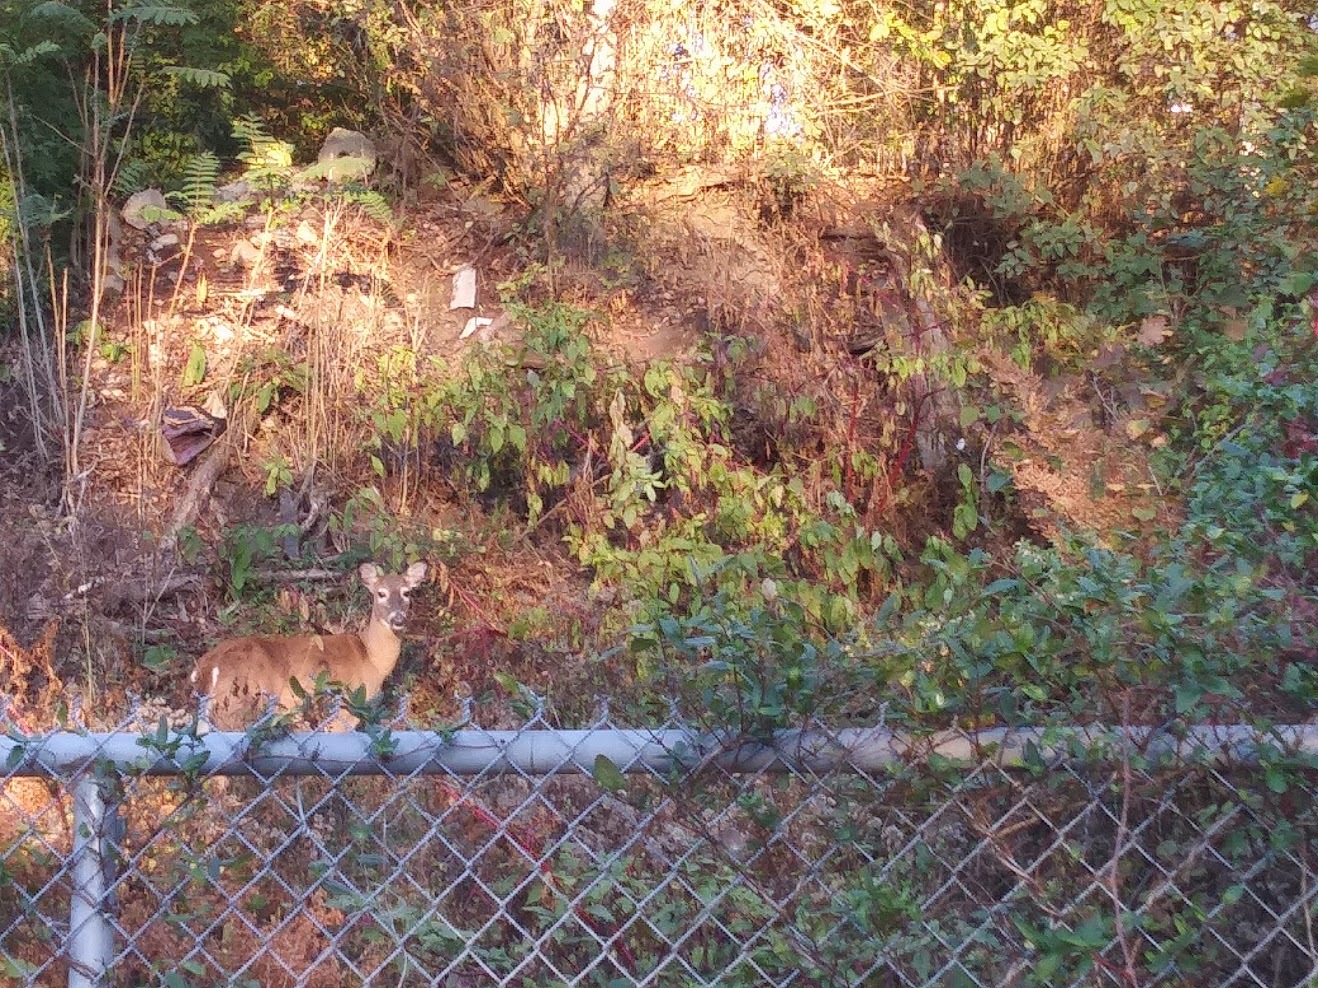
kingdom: Animalia
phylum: Chordata
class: Mammalia
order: Artiodactyla
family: Cervidae
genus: Odocoileus
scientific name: Odocoileus virginianus
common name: White-tailed deer
